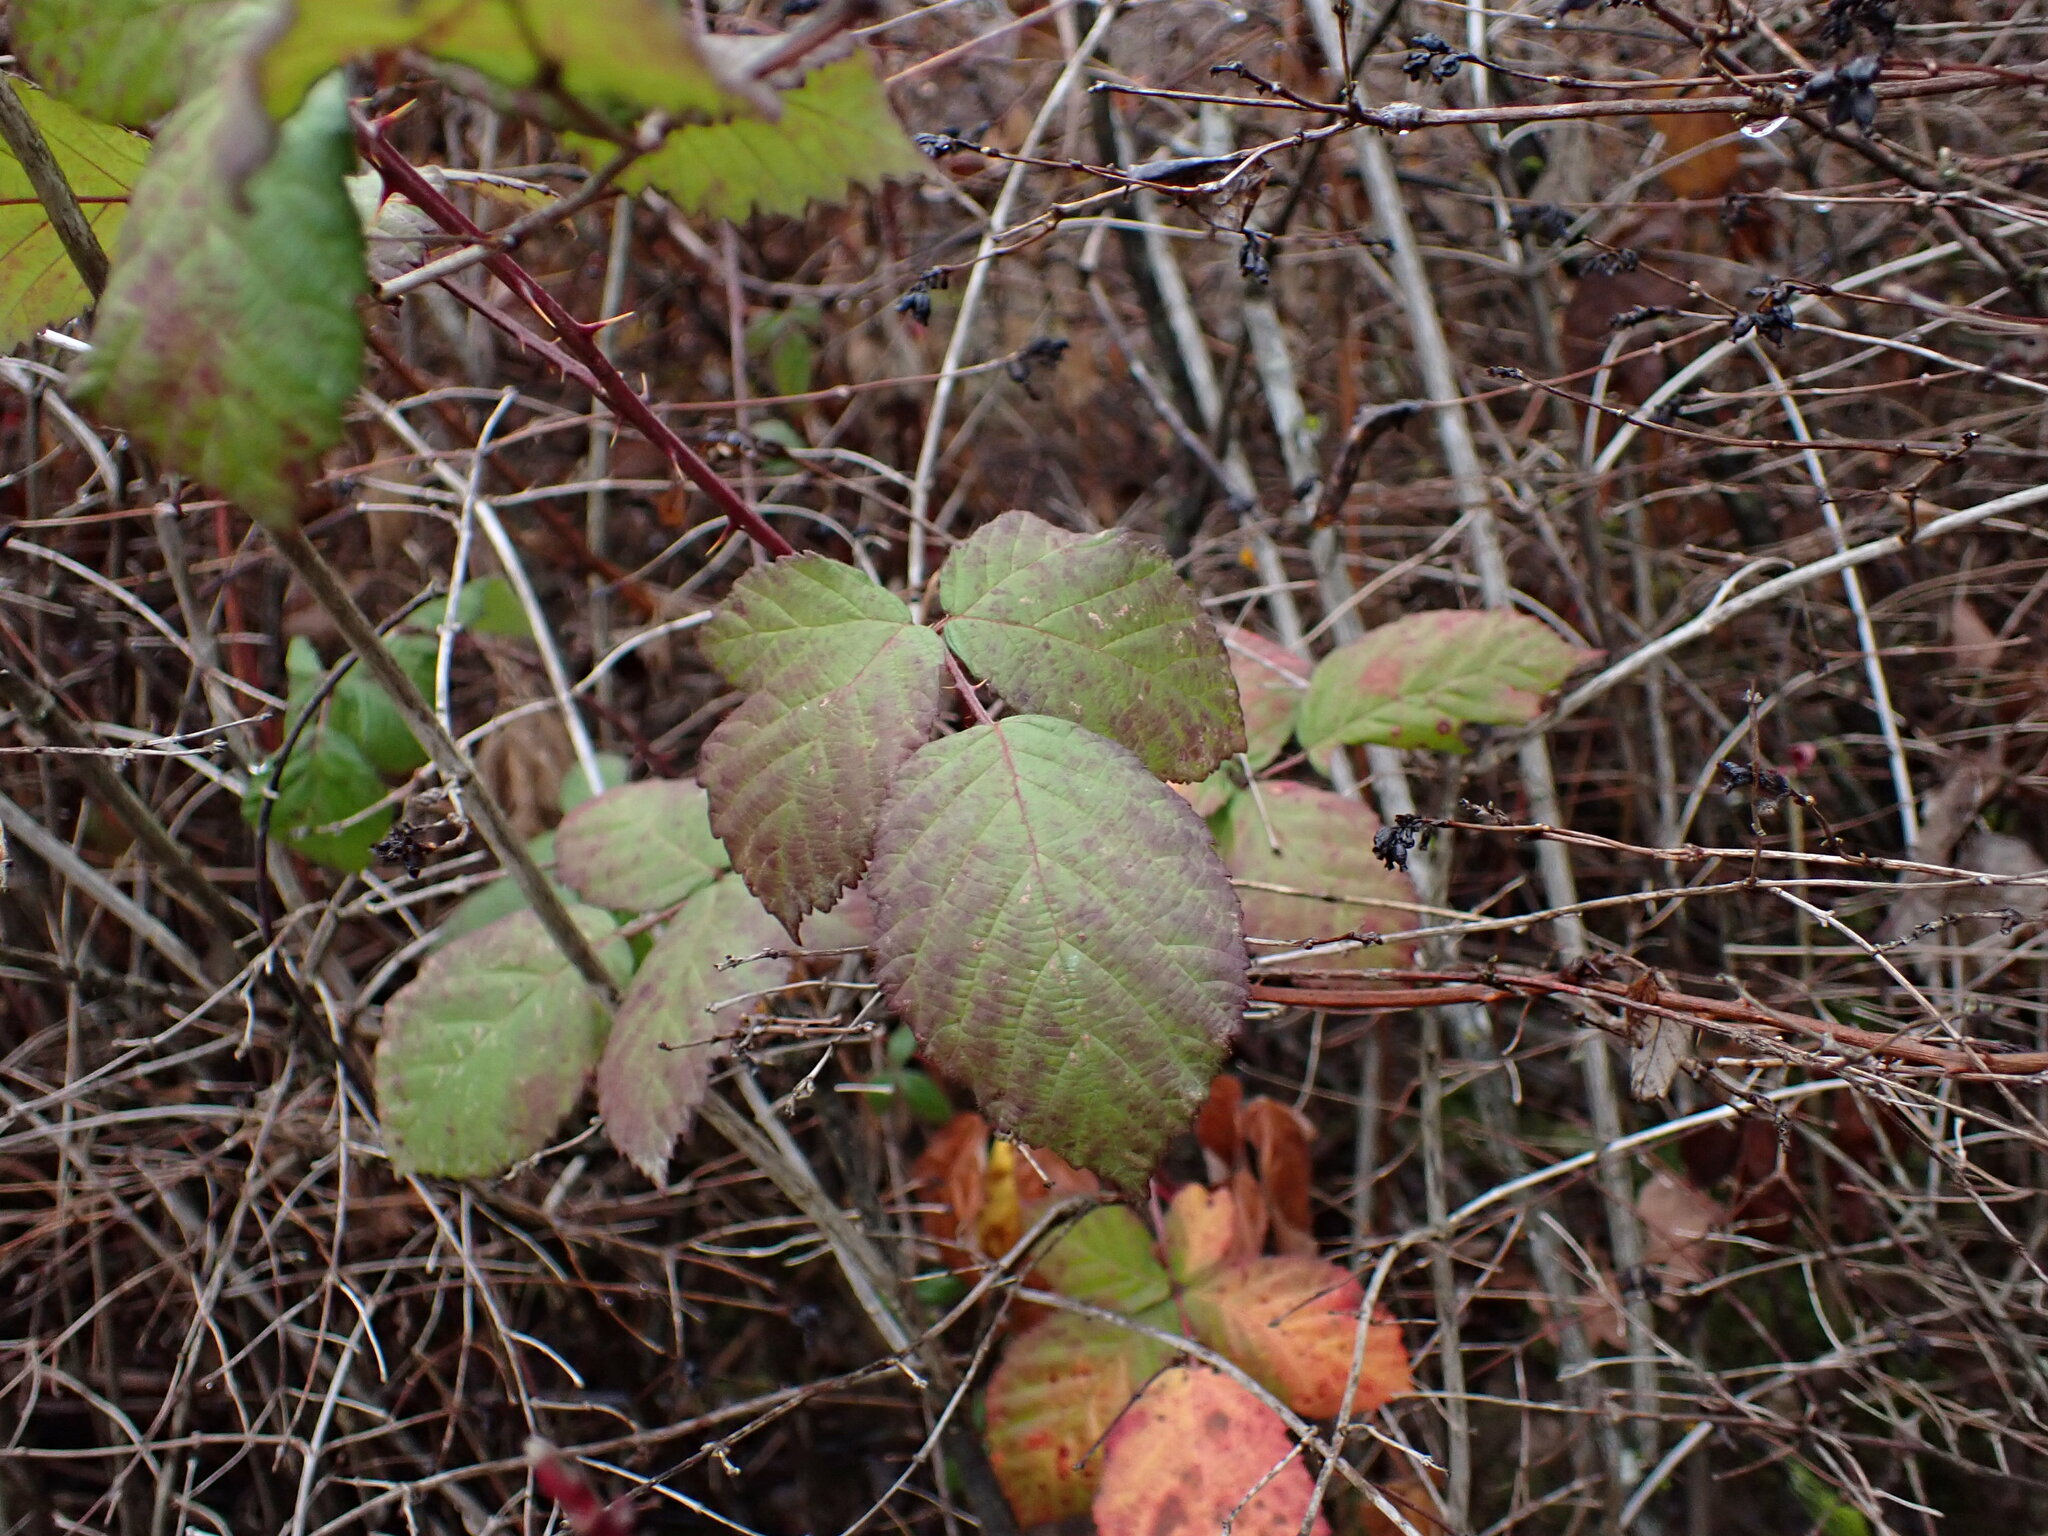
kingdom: Plantae
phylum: Tracheophyta
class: Magnoliopsida
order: Rosales
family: Rosaceae
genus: Rubus
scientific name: Rubus bifrons
